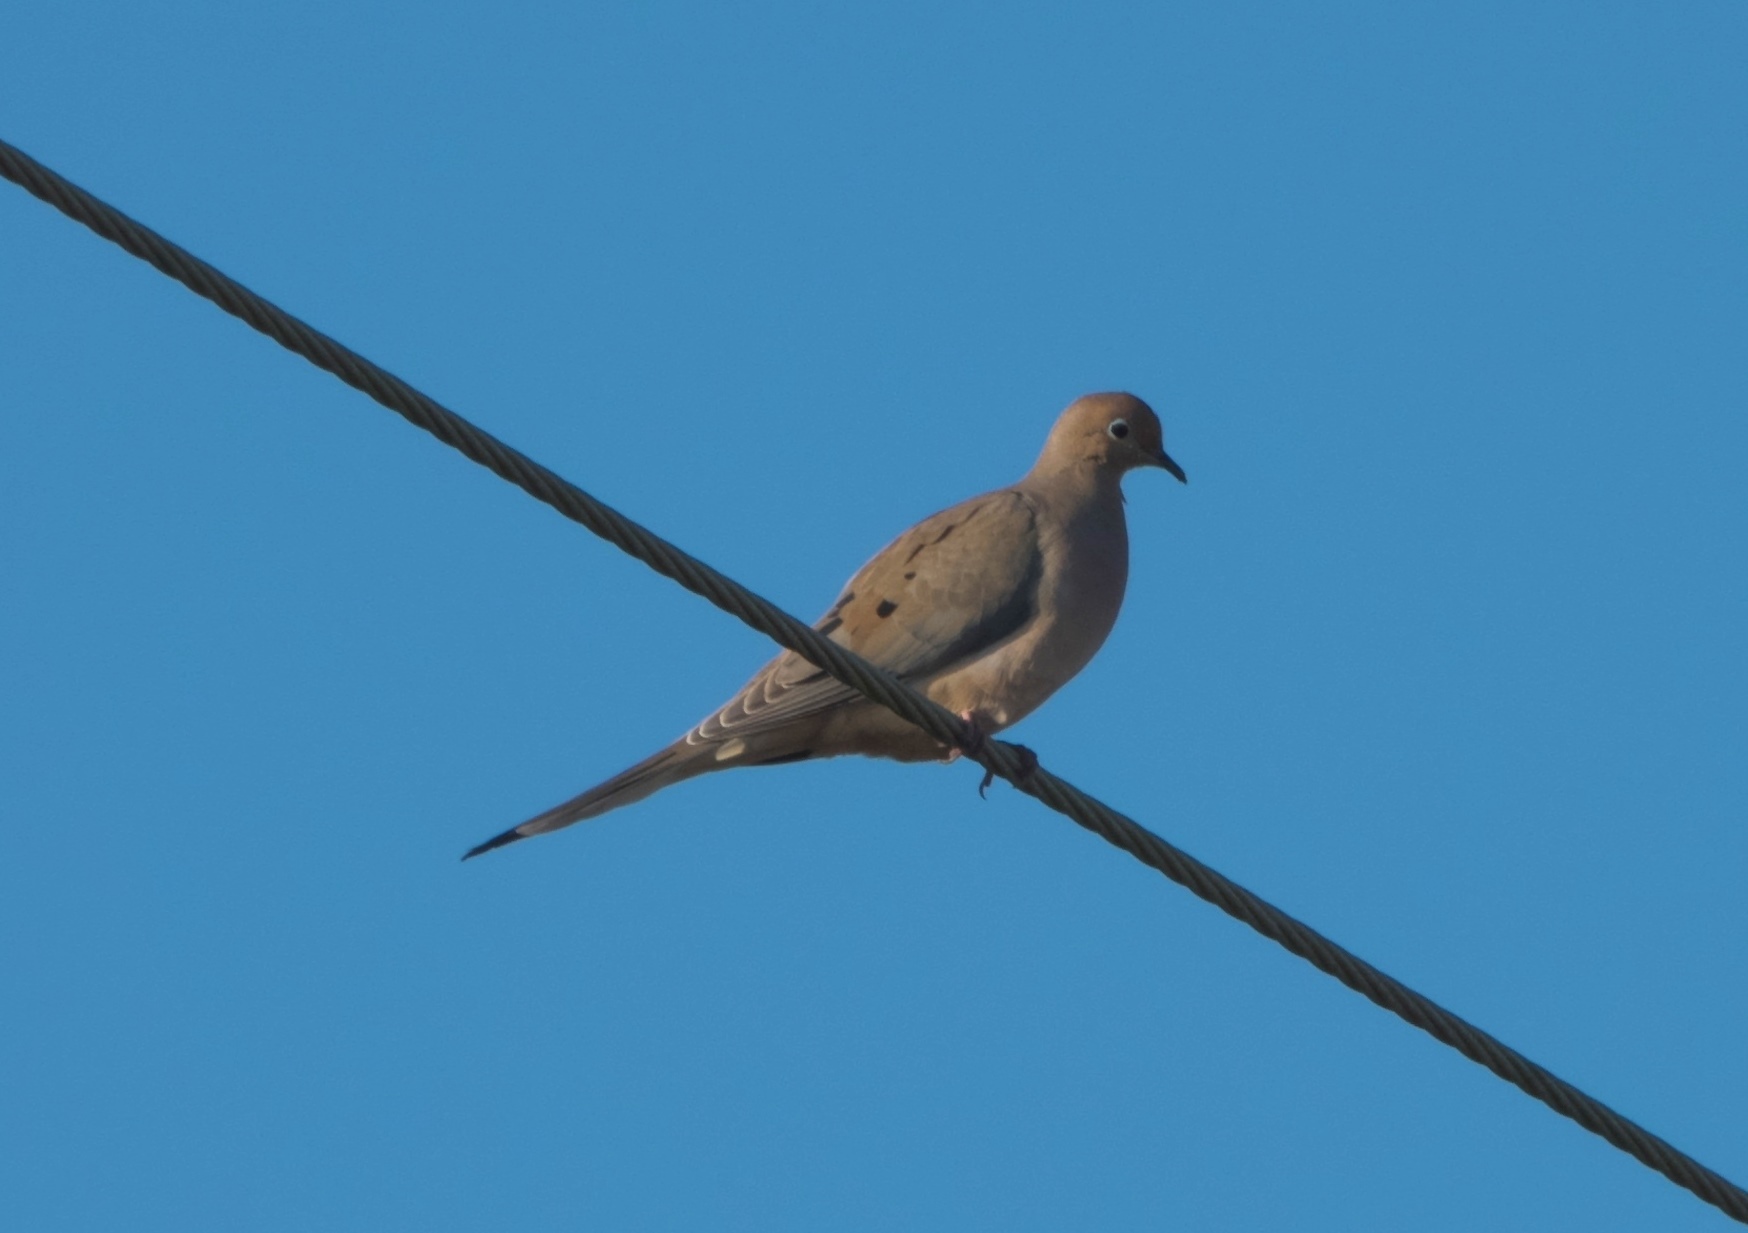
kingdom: Animalia
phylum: Chordata
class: Aves
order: Columbiformes
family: Columbidae
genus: Zenaida
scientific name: Zenaida macroura
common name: Mourning dove
